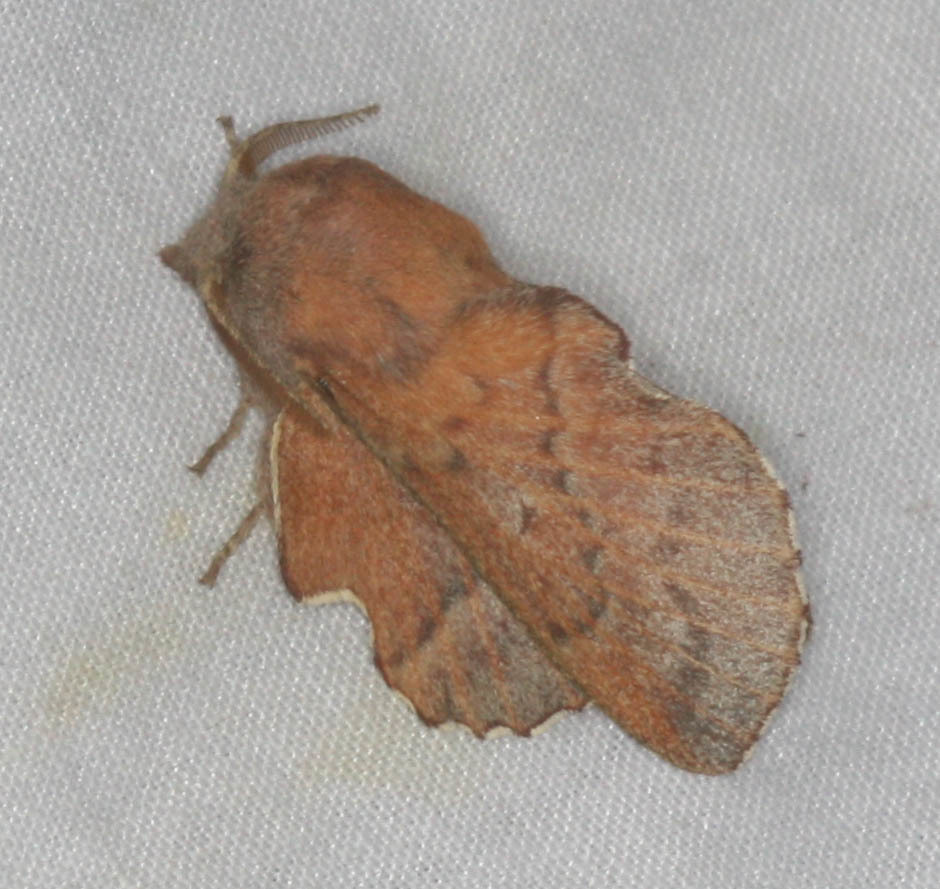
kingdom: Animalia
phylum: Arthropoda
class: Insecta
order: Lepidoptera
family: Lasiocampidae
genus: Phyllodesma
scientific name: Phyllodesma americana
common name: American lappet moth
